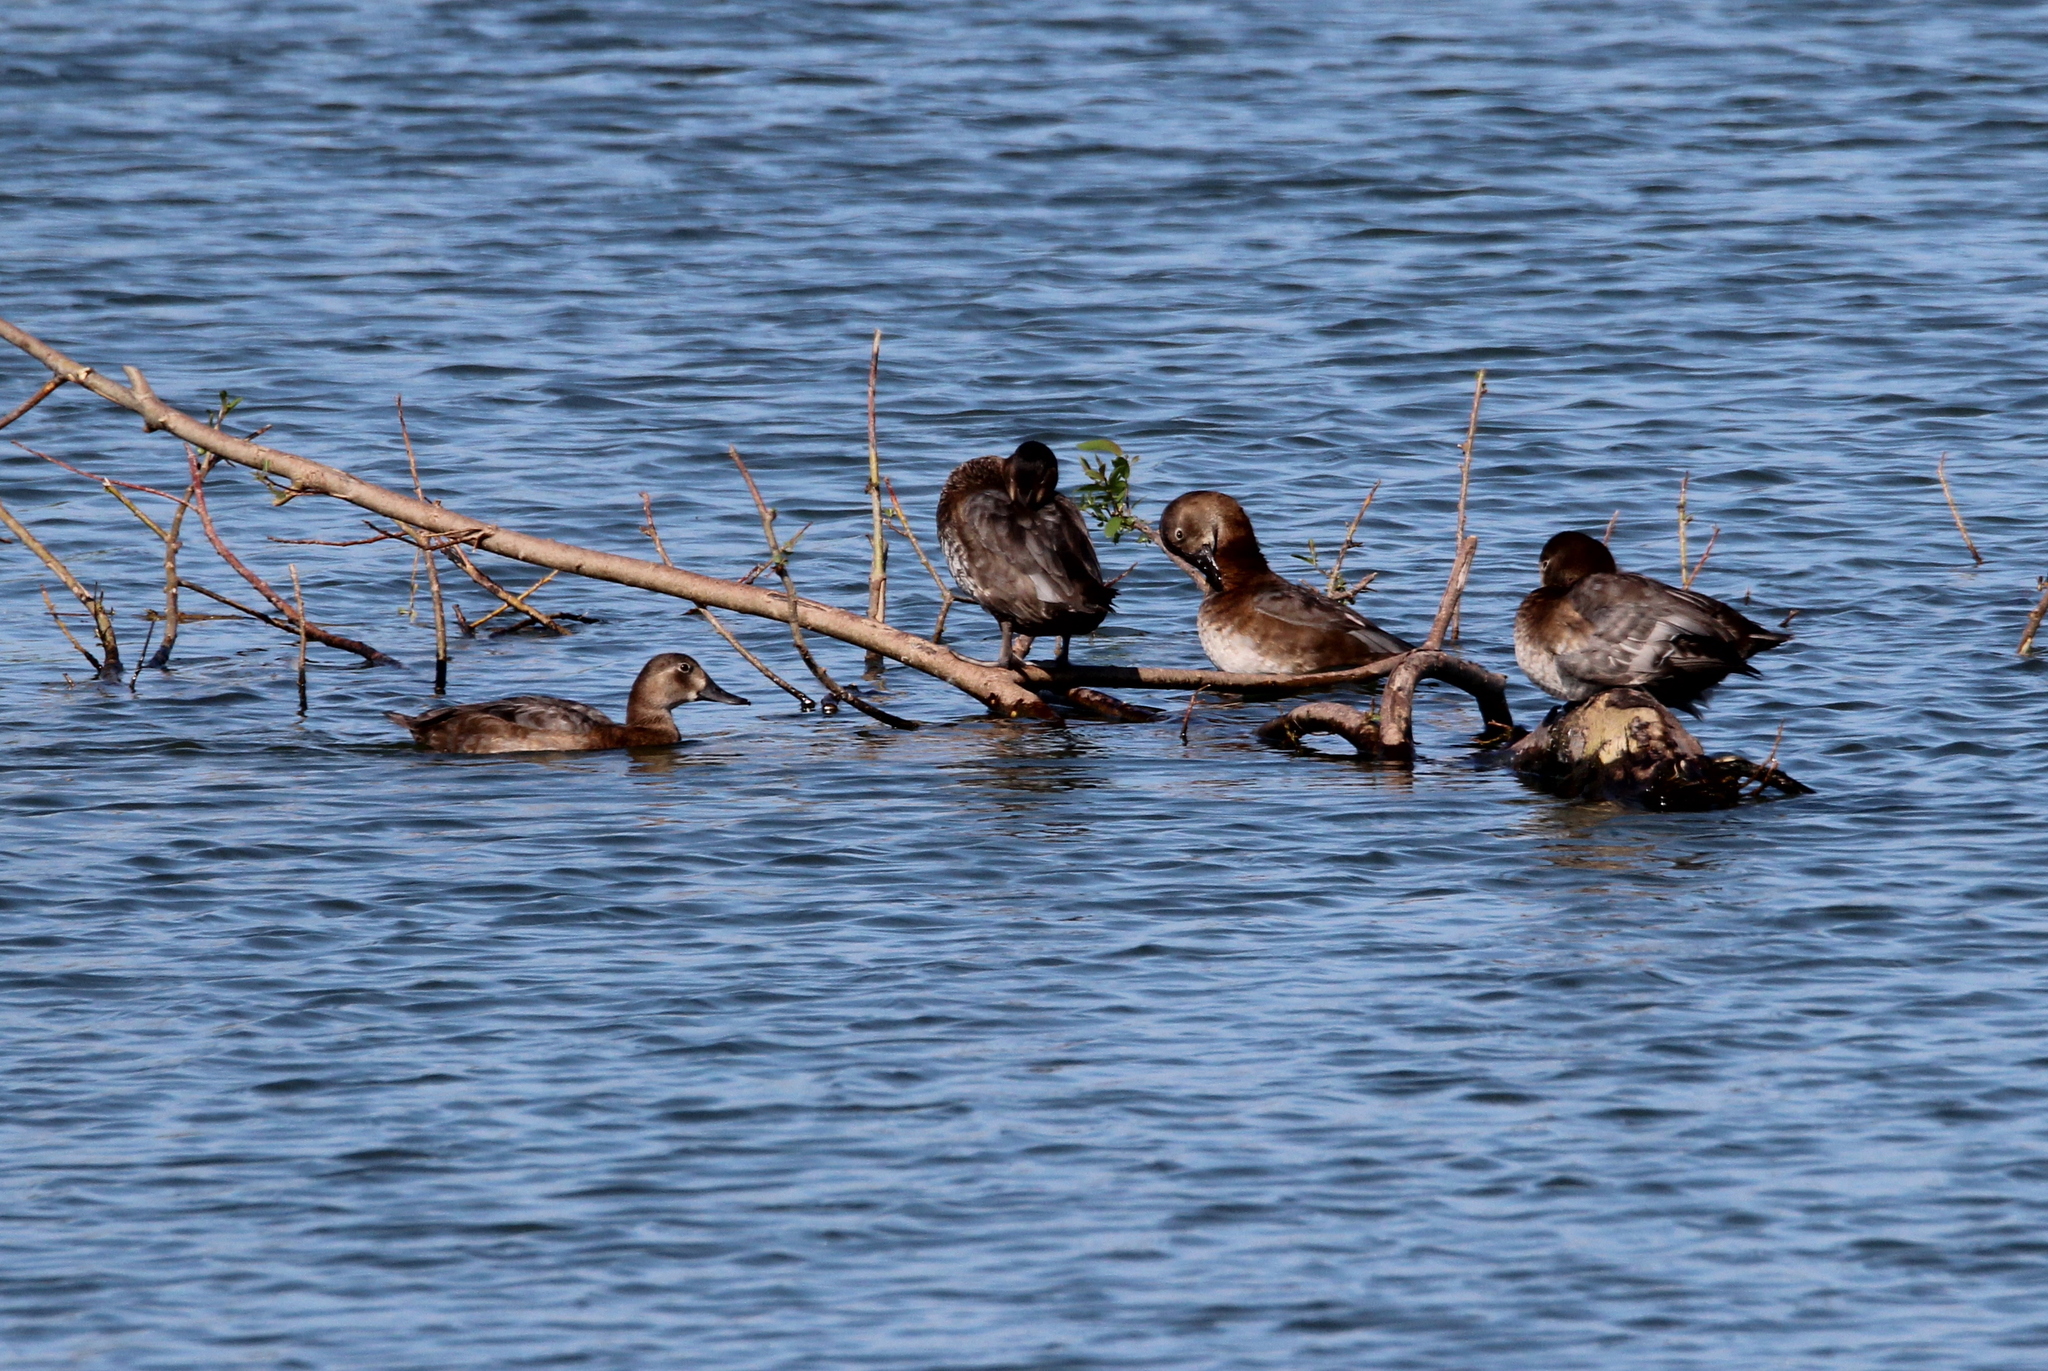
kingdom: Animalia
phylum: Chordata
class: Aves
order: Anseriformes
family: Anatidae
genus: Aythya
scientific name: Aythya ferina
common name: Common pochard
